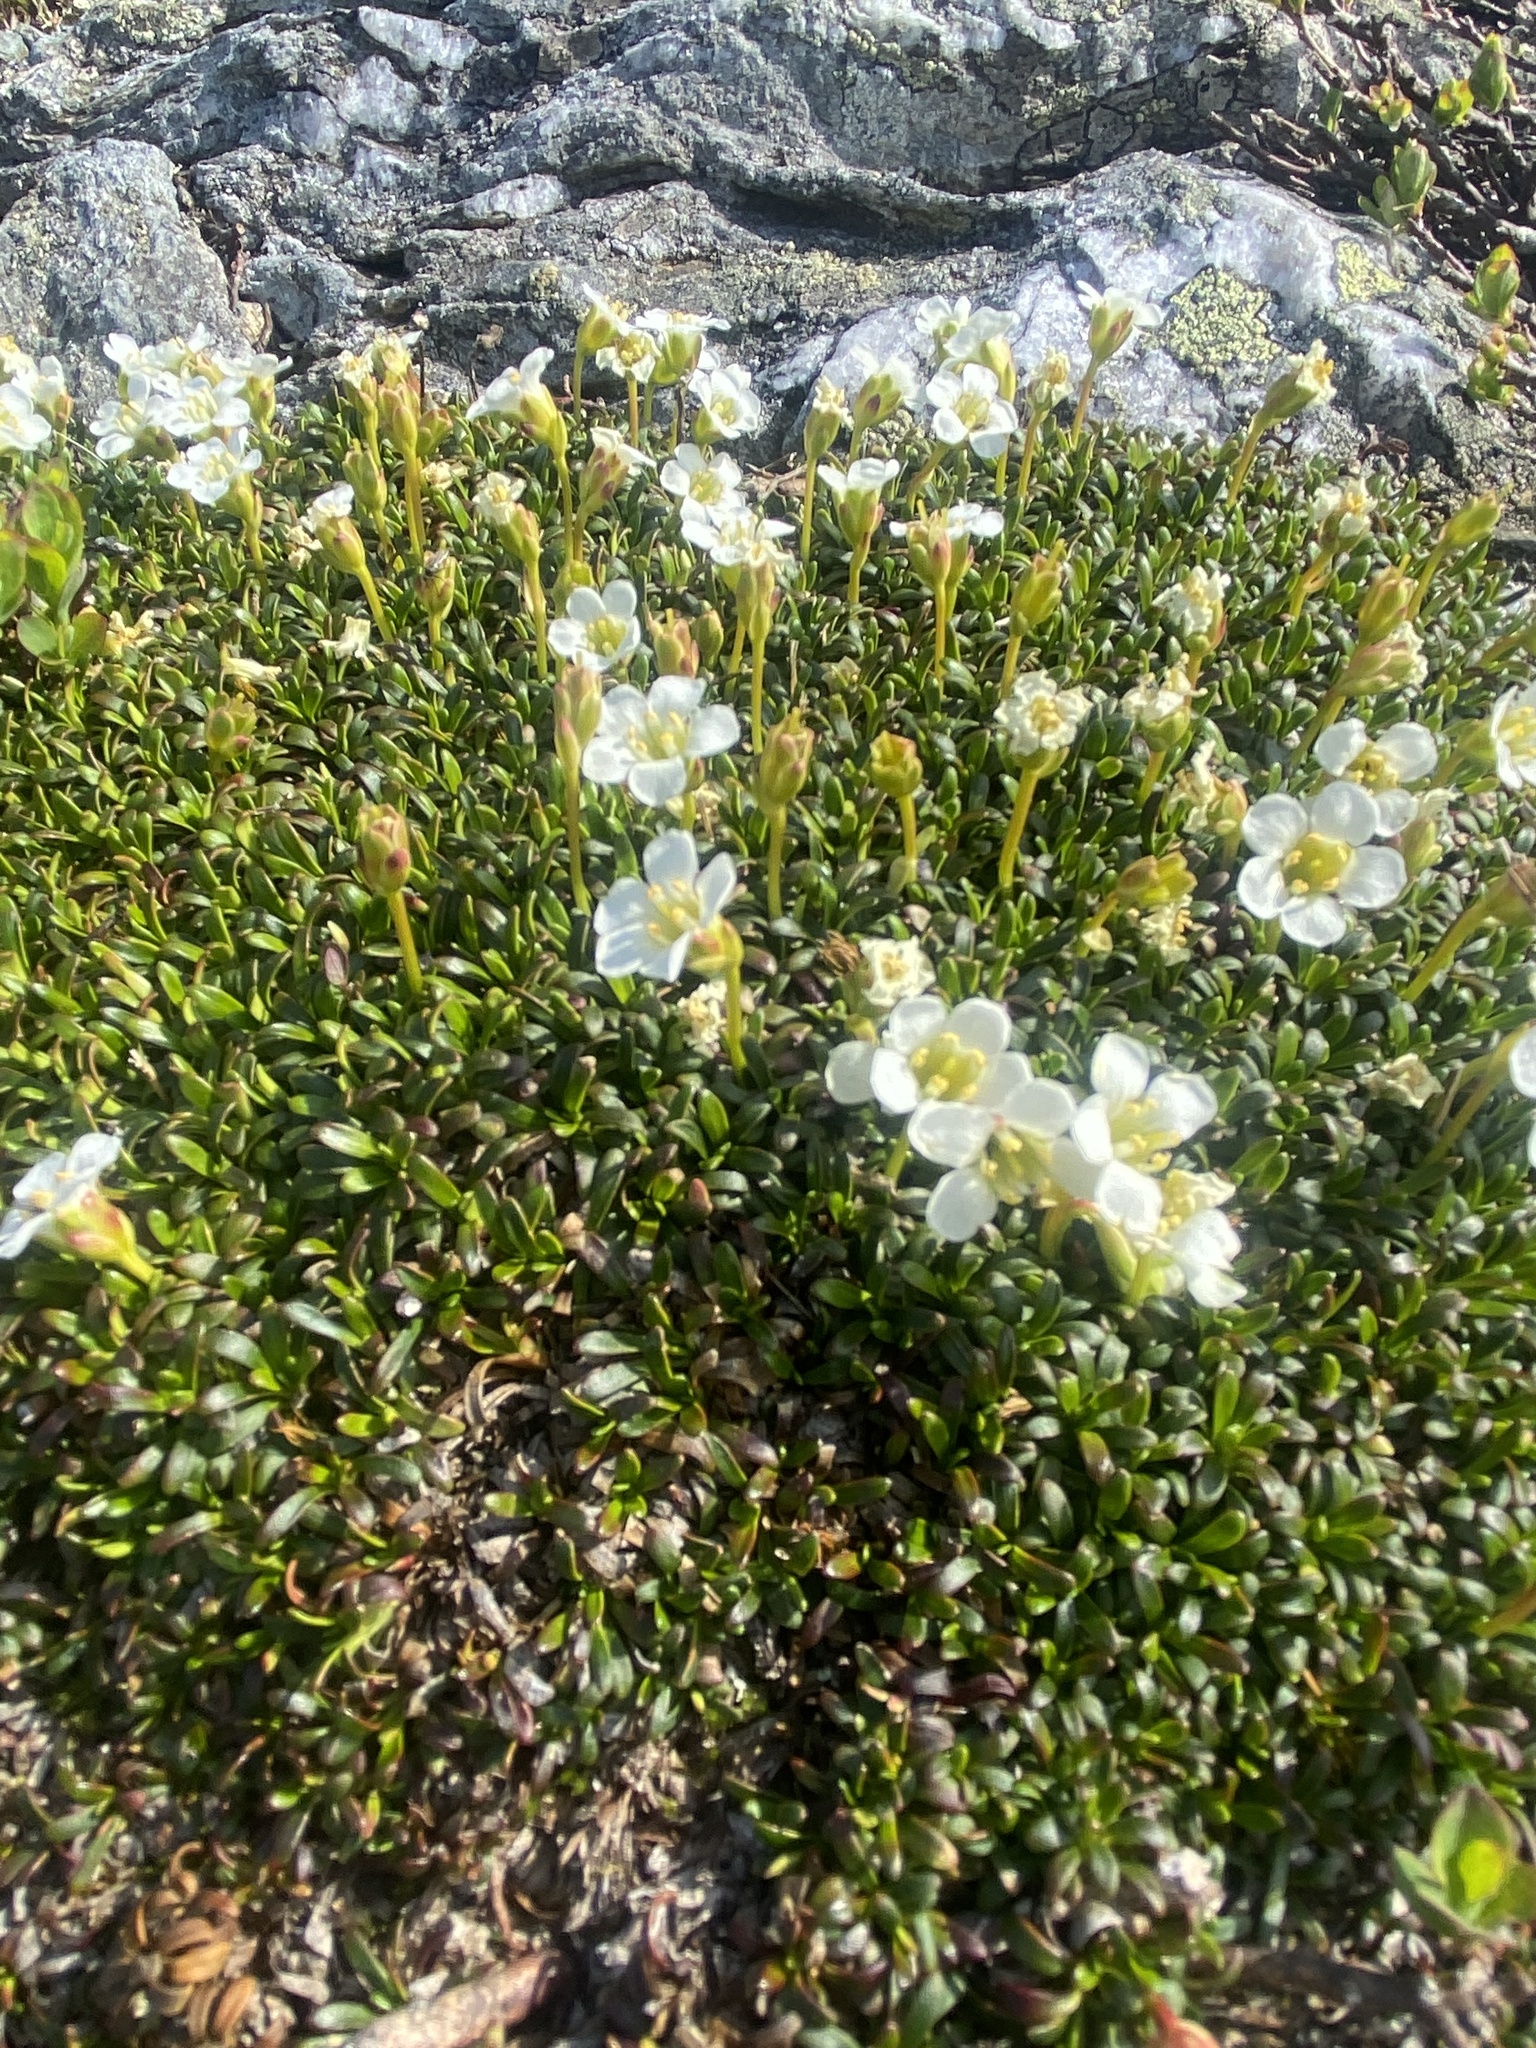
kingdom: Plantae
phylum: Tracheophyta
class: Magnoliopsida
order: Ericales
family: Diapensiaceae
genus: Diapensia
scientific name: Diapensia lapponica
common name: Diapensia
